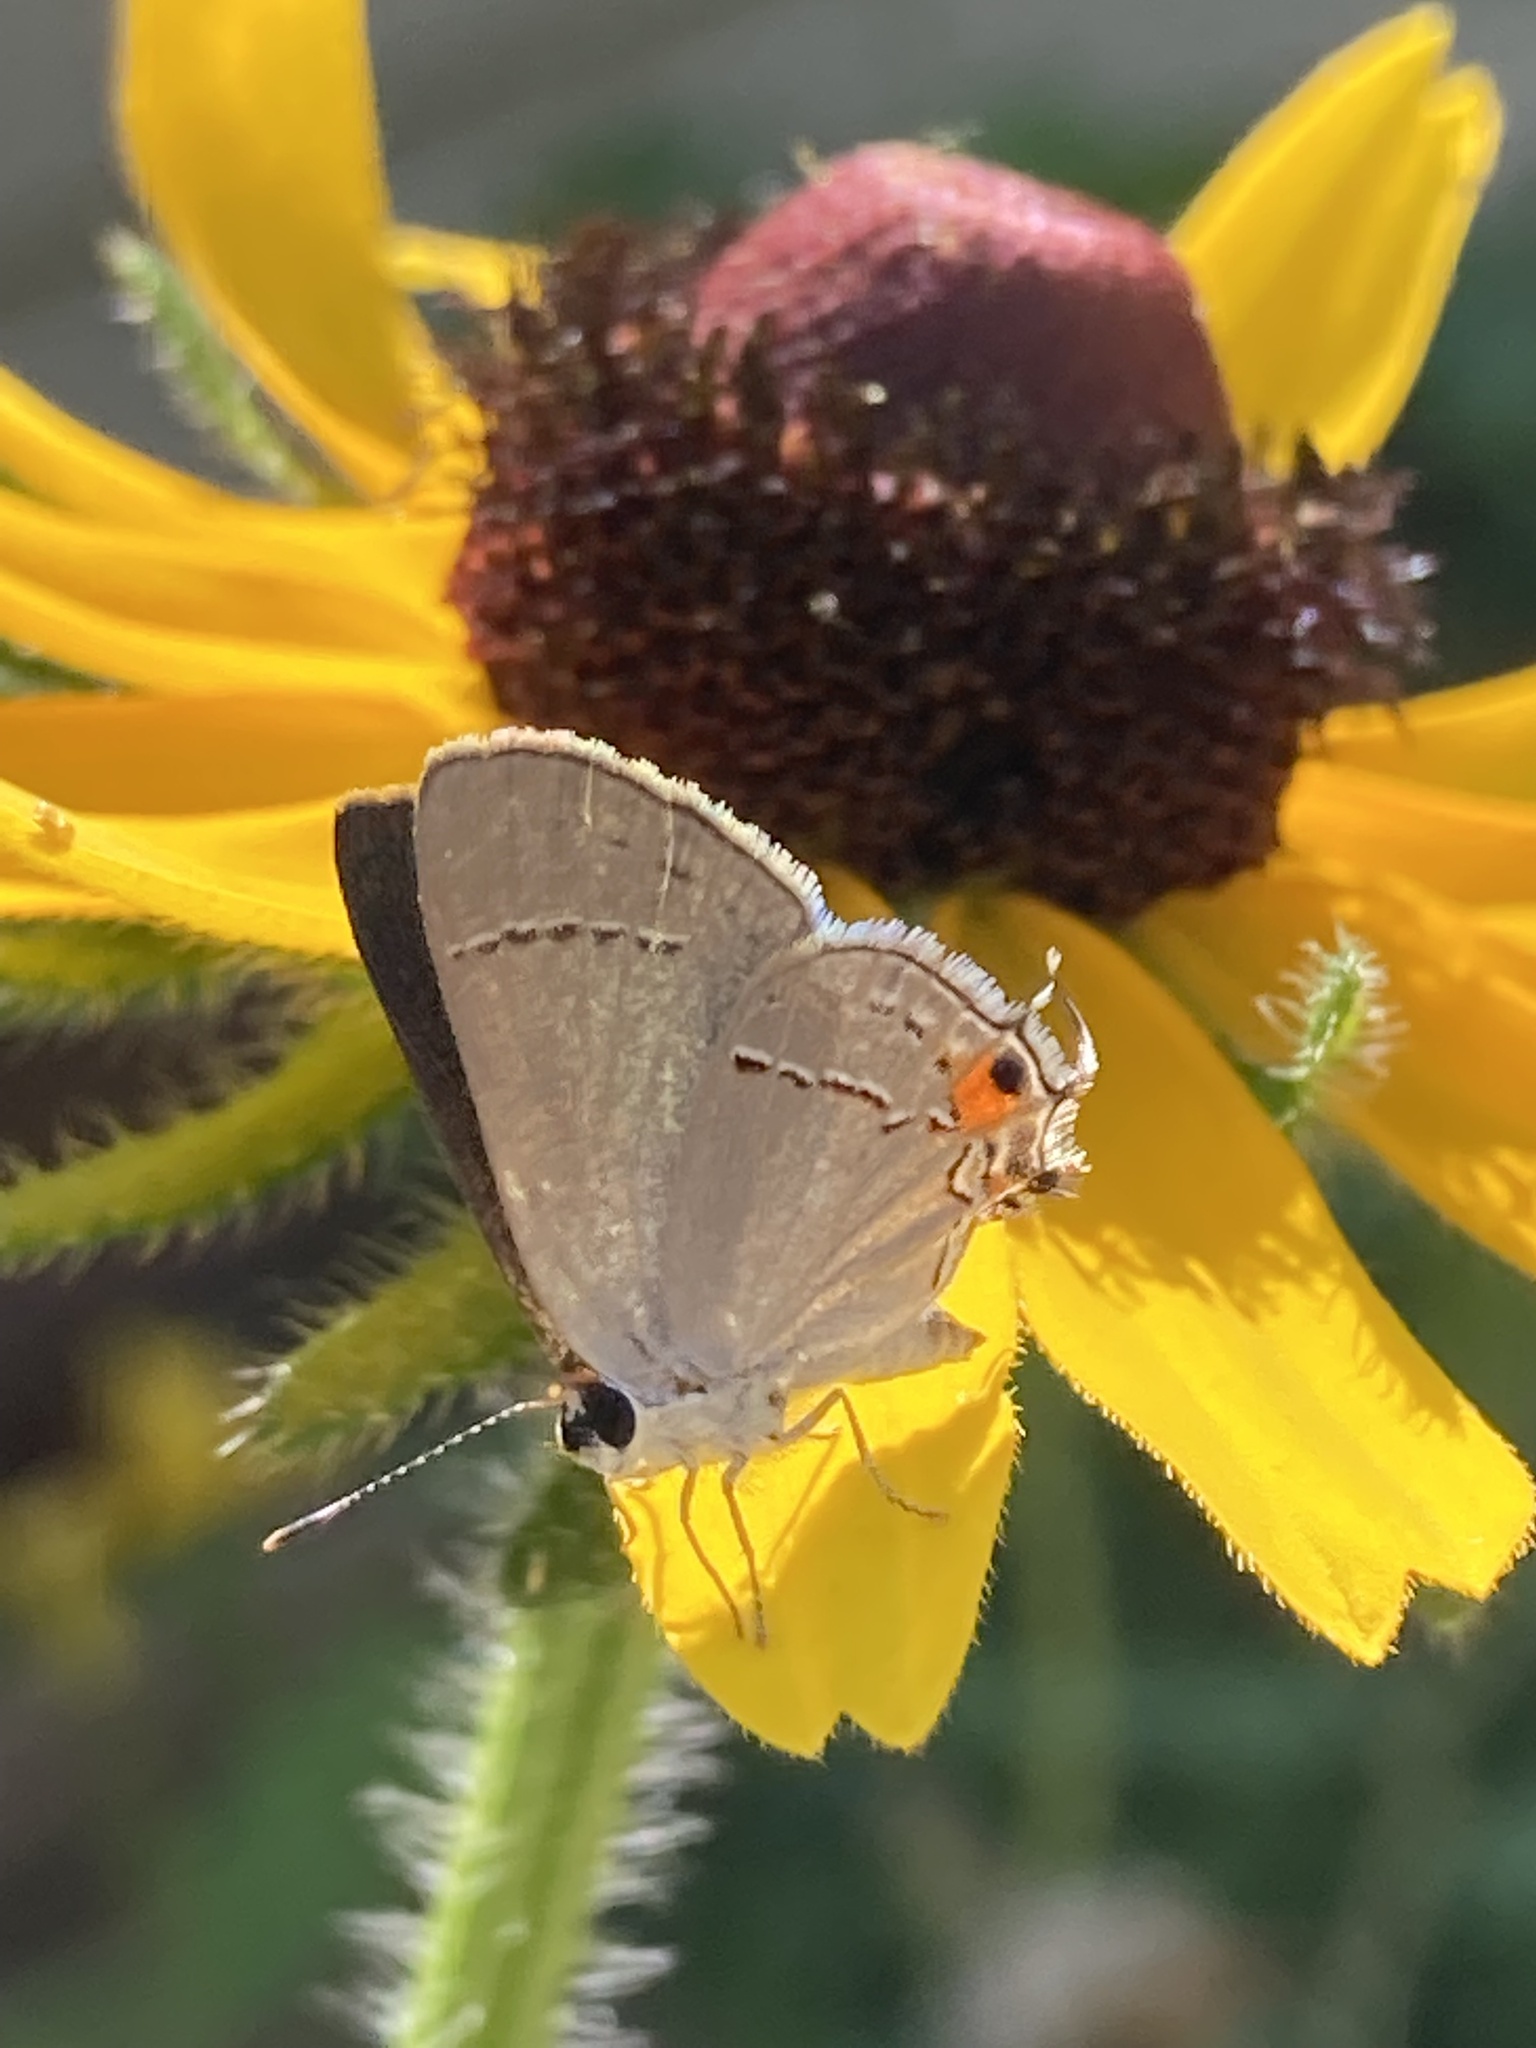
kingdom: Animalia
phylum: Arthropoda
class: Insecta
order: Lepidoptera
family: Lycaenidae
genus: Strymon
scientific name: Strymon melinus
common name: Gray hairstreak
